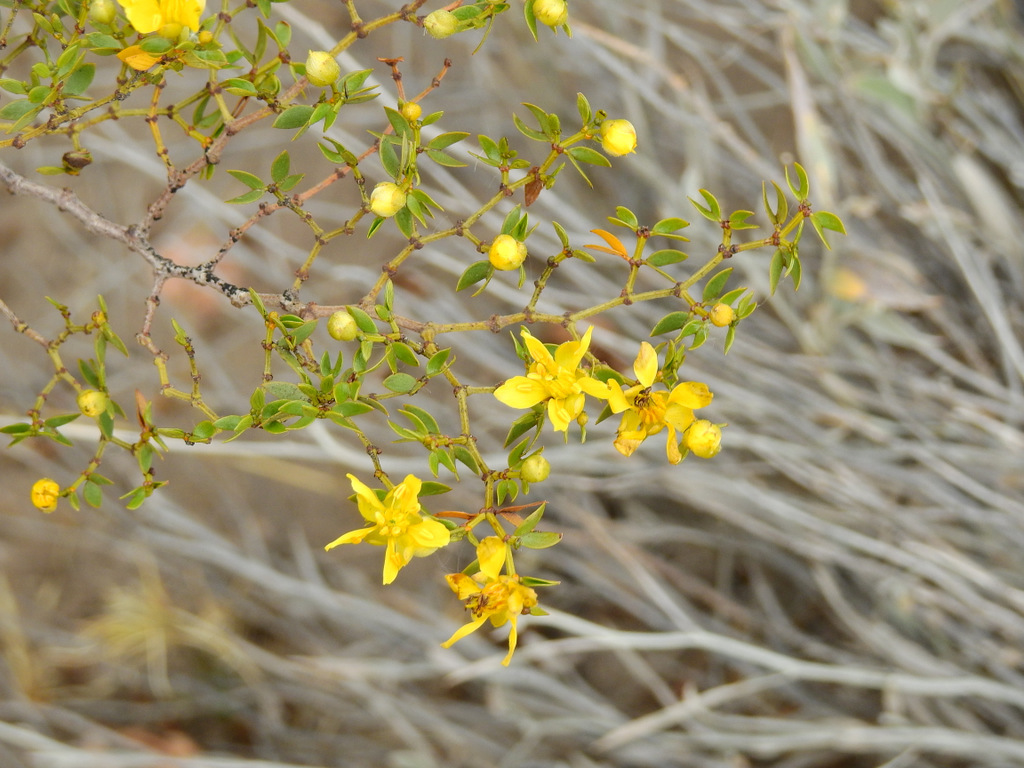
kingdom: Plantae
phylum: Tracheophyta
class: Magnoliopsida
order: Zygophyllales
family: Zygophyllaceae
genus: Larrea
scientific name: Larrea divaricata
